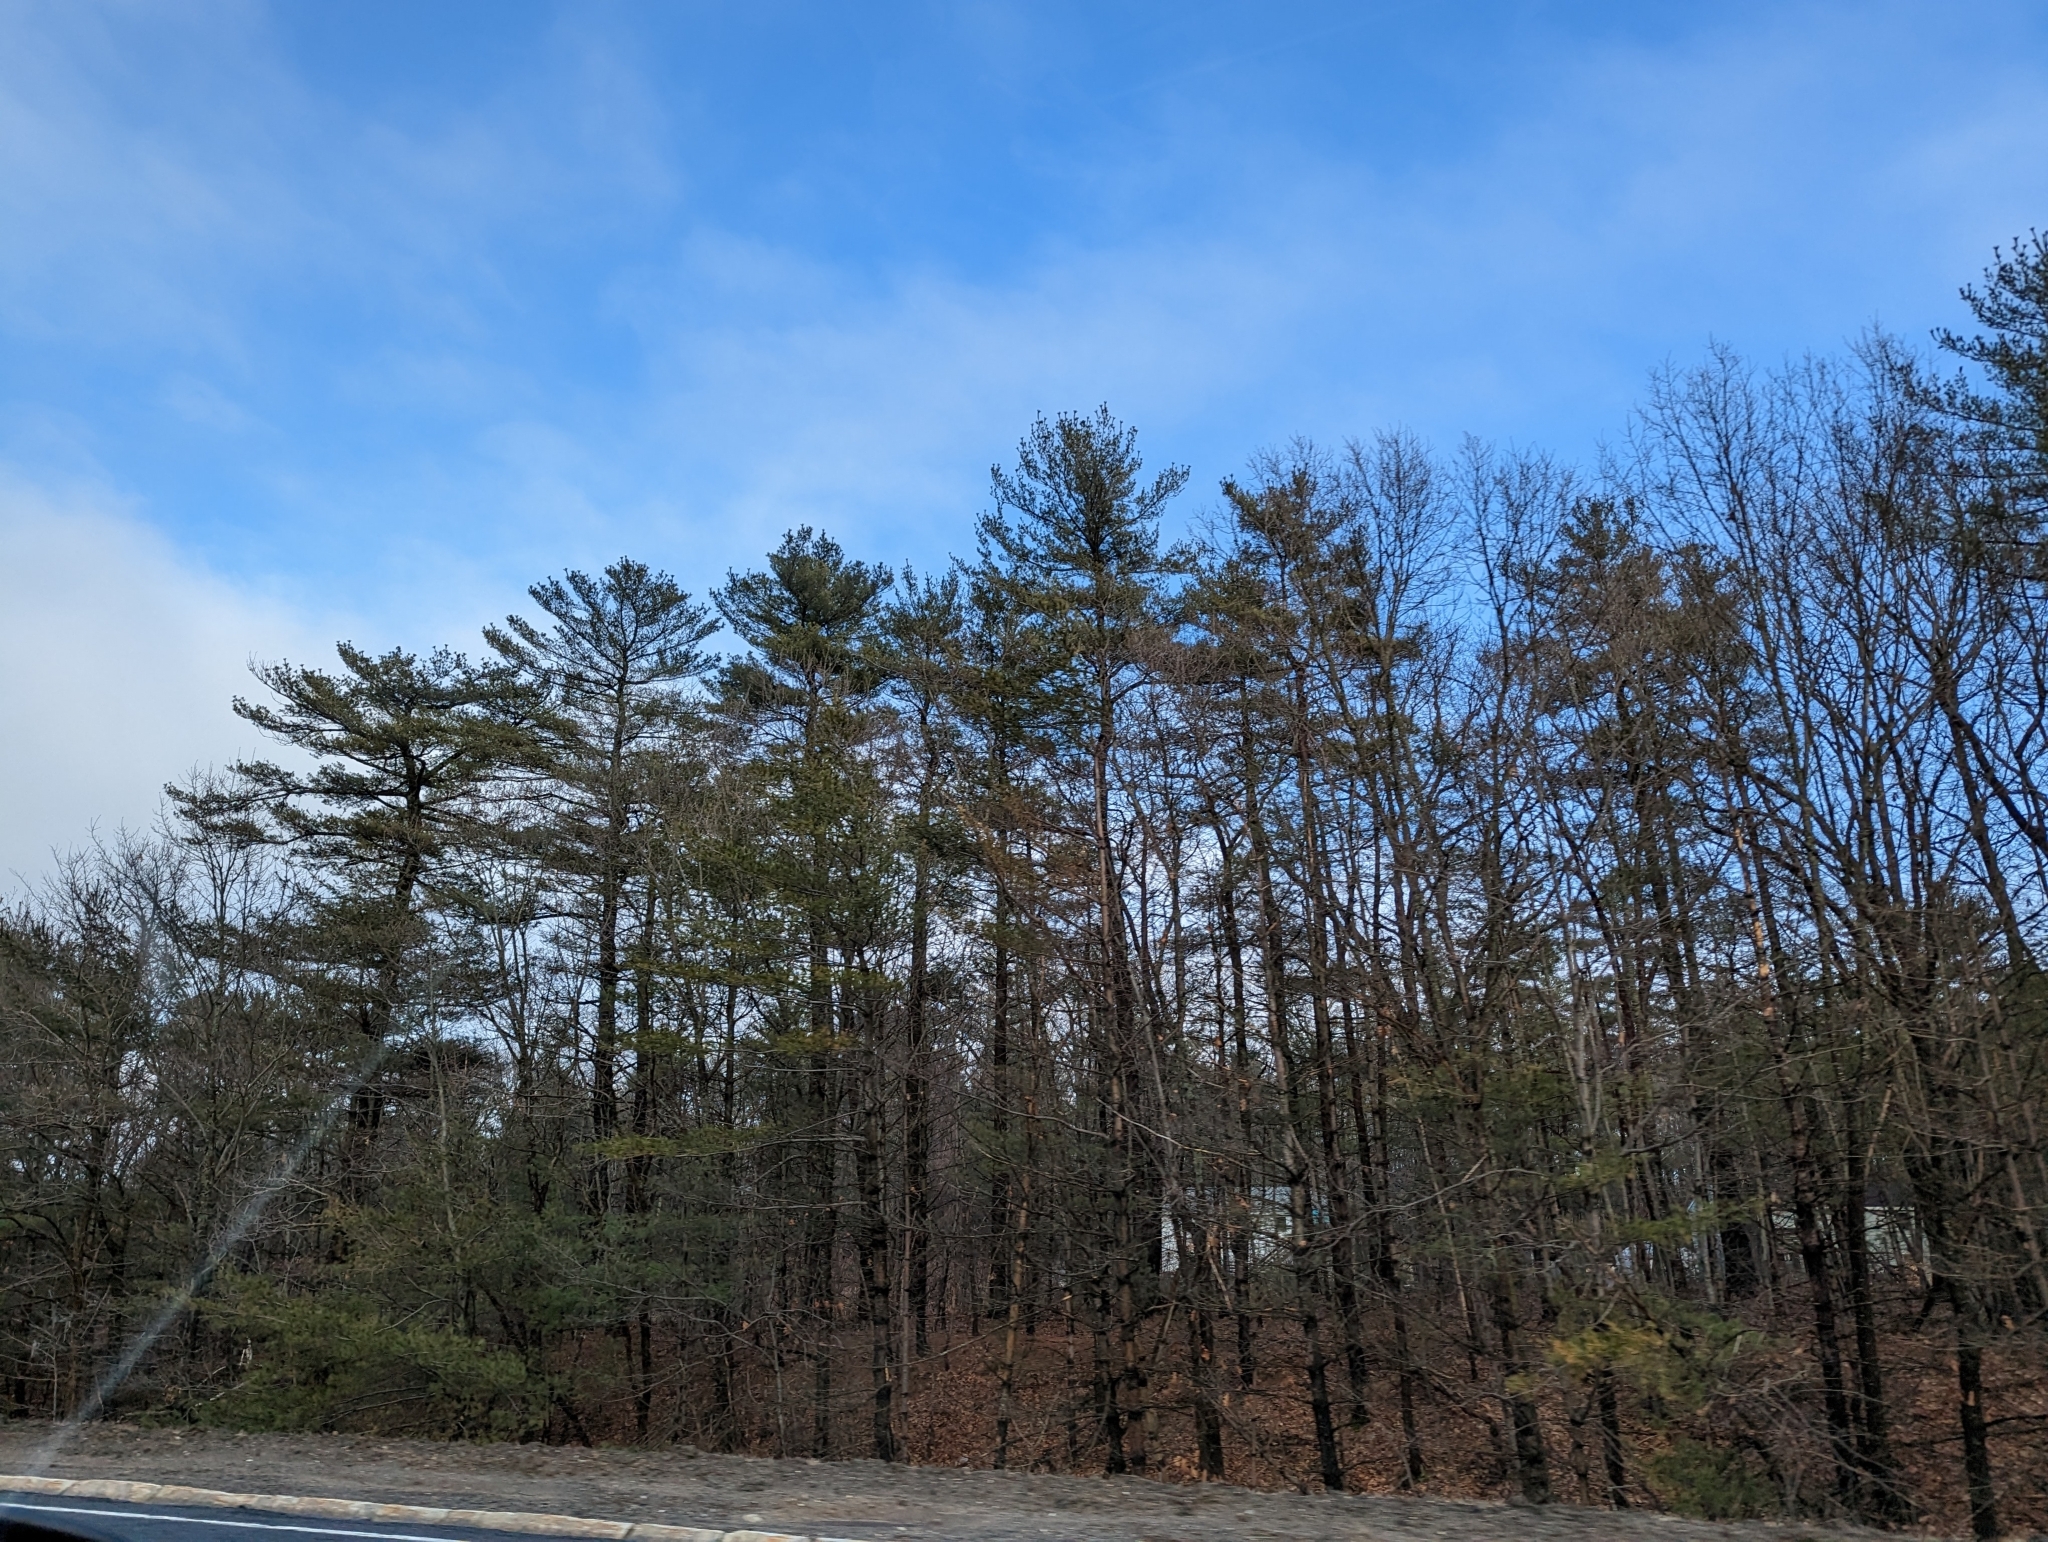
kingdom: Plantae
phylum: Tracheophyta
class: Pinopsida
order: Pinales
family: Pinaceae
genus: Pinus
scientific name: Pinus strobus
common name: Weymouth pine
